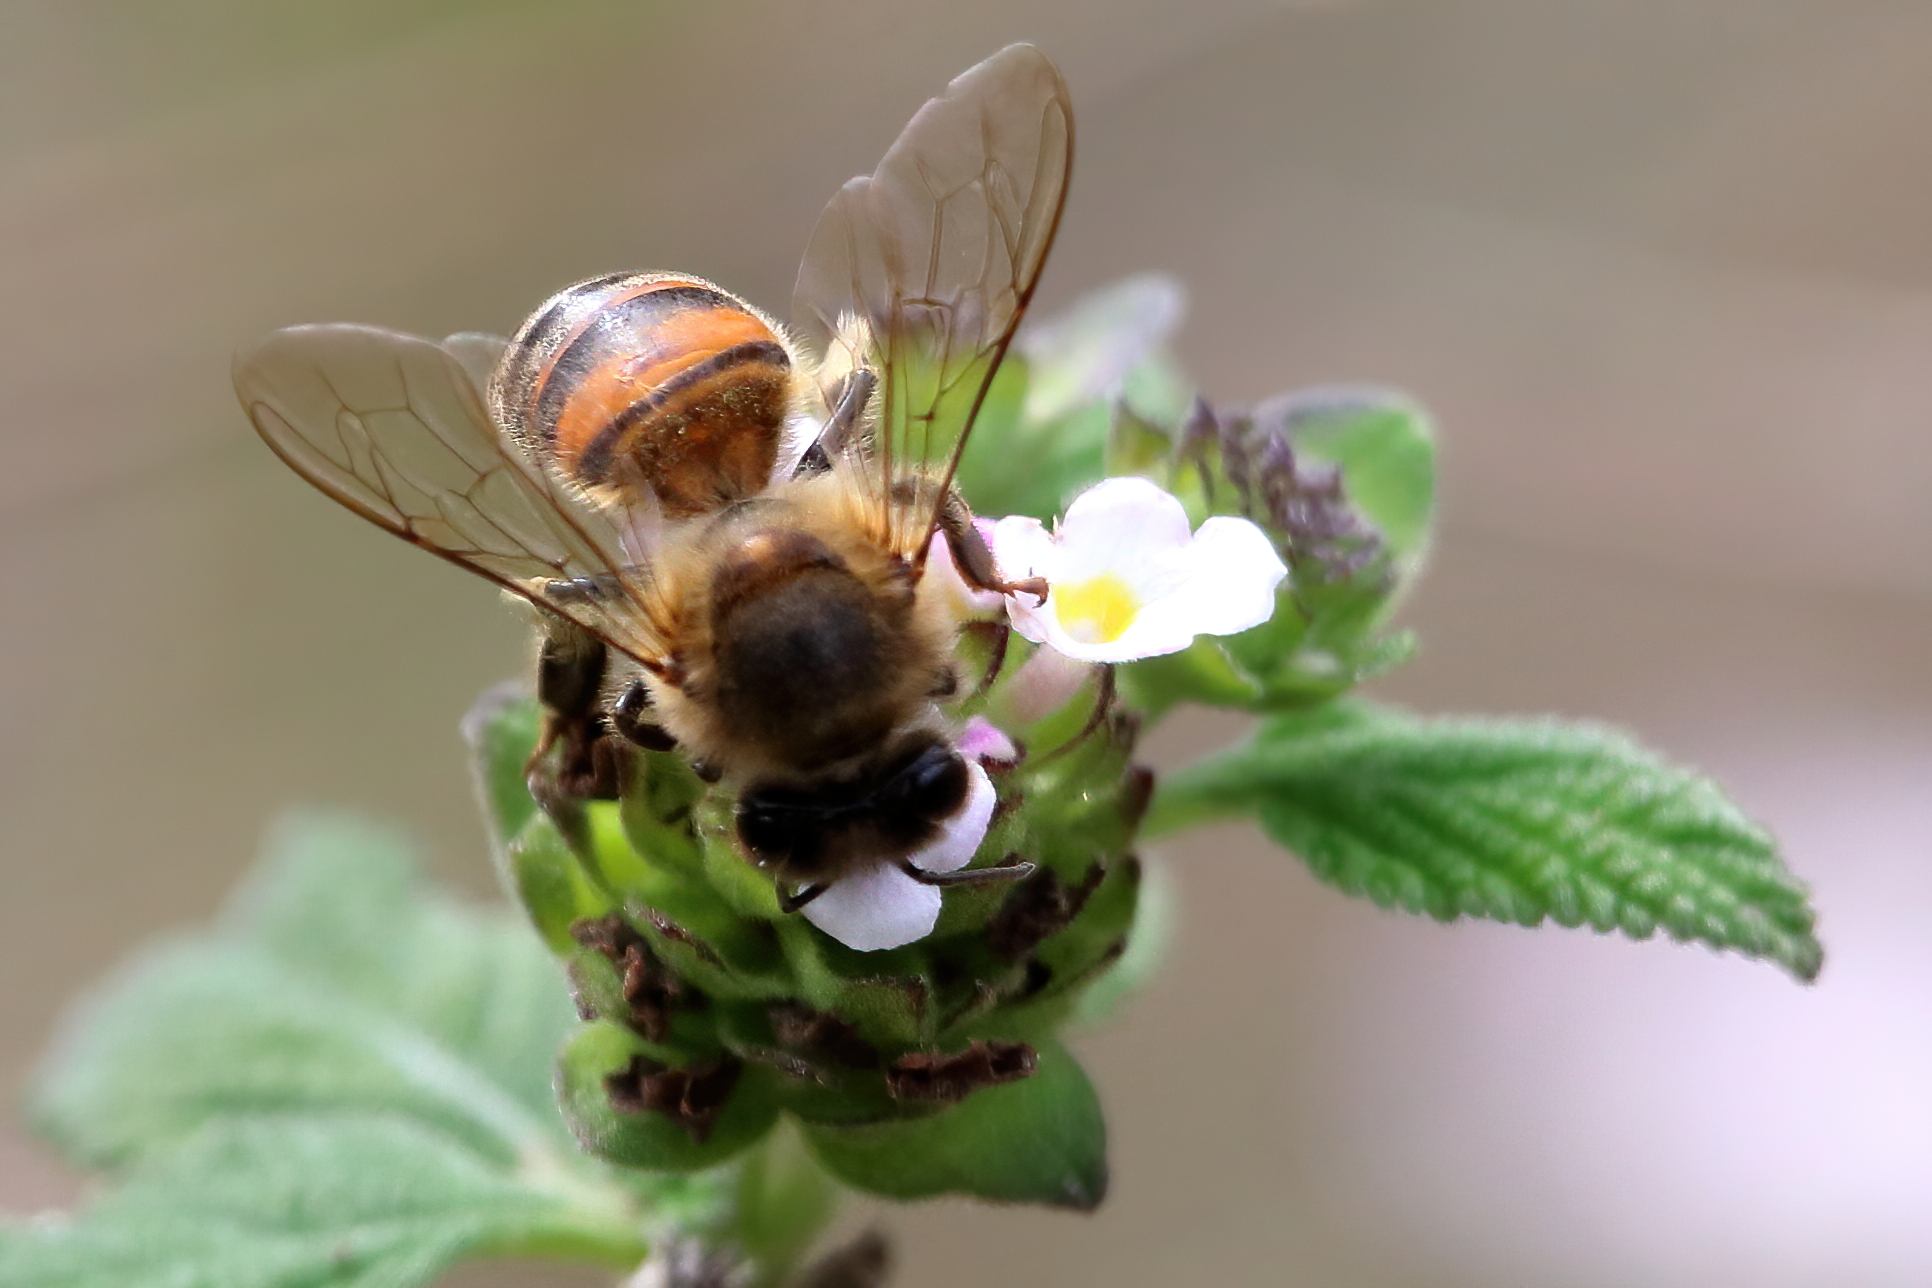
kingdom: Animalia
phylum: Arthropoda
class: Insecta
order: Hymenoptera
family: Apidae
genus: Apis
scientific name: Apis mellifera
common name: Honey bee
